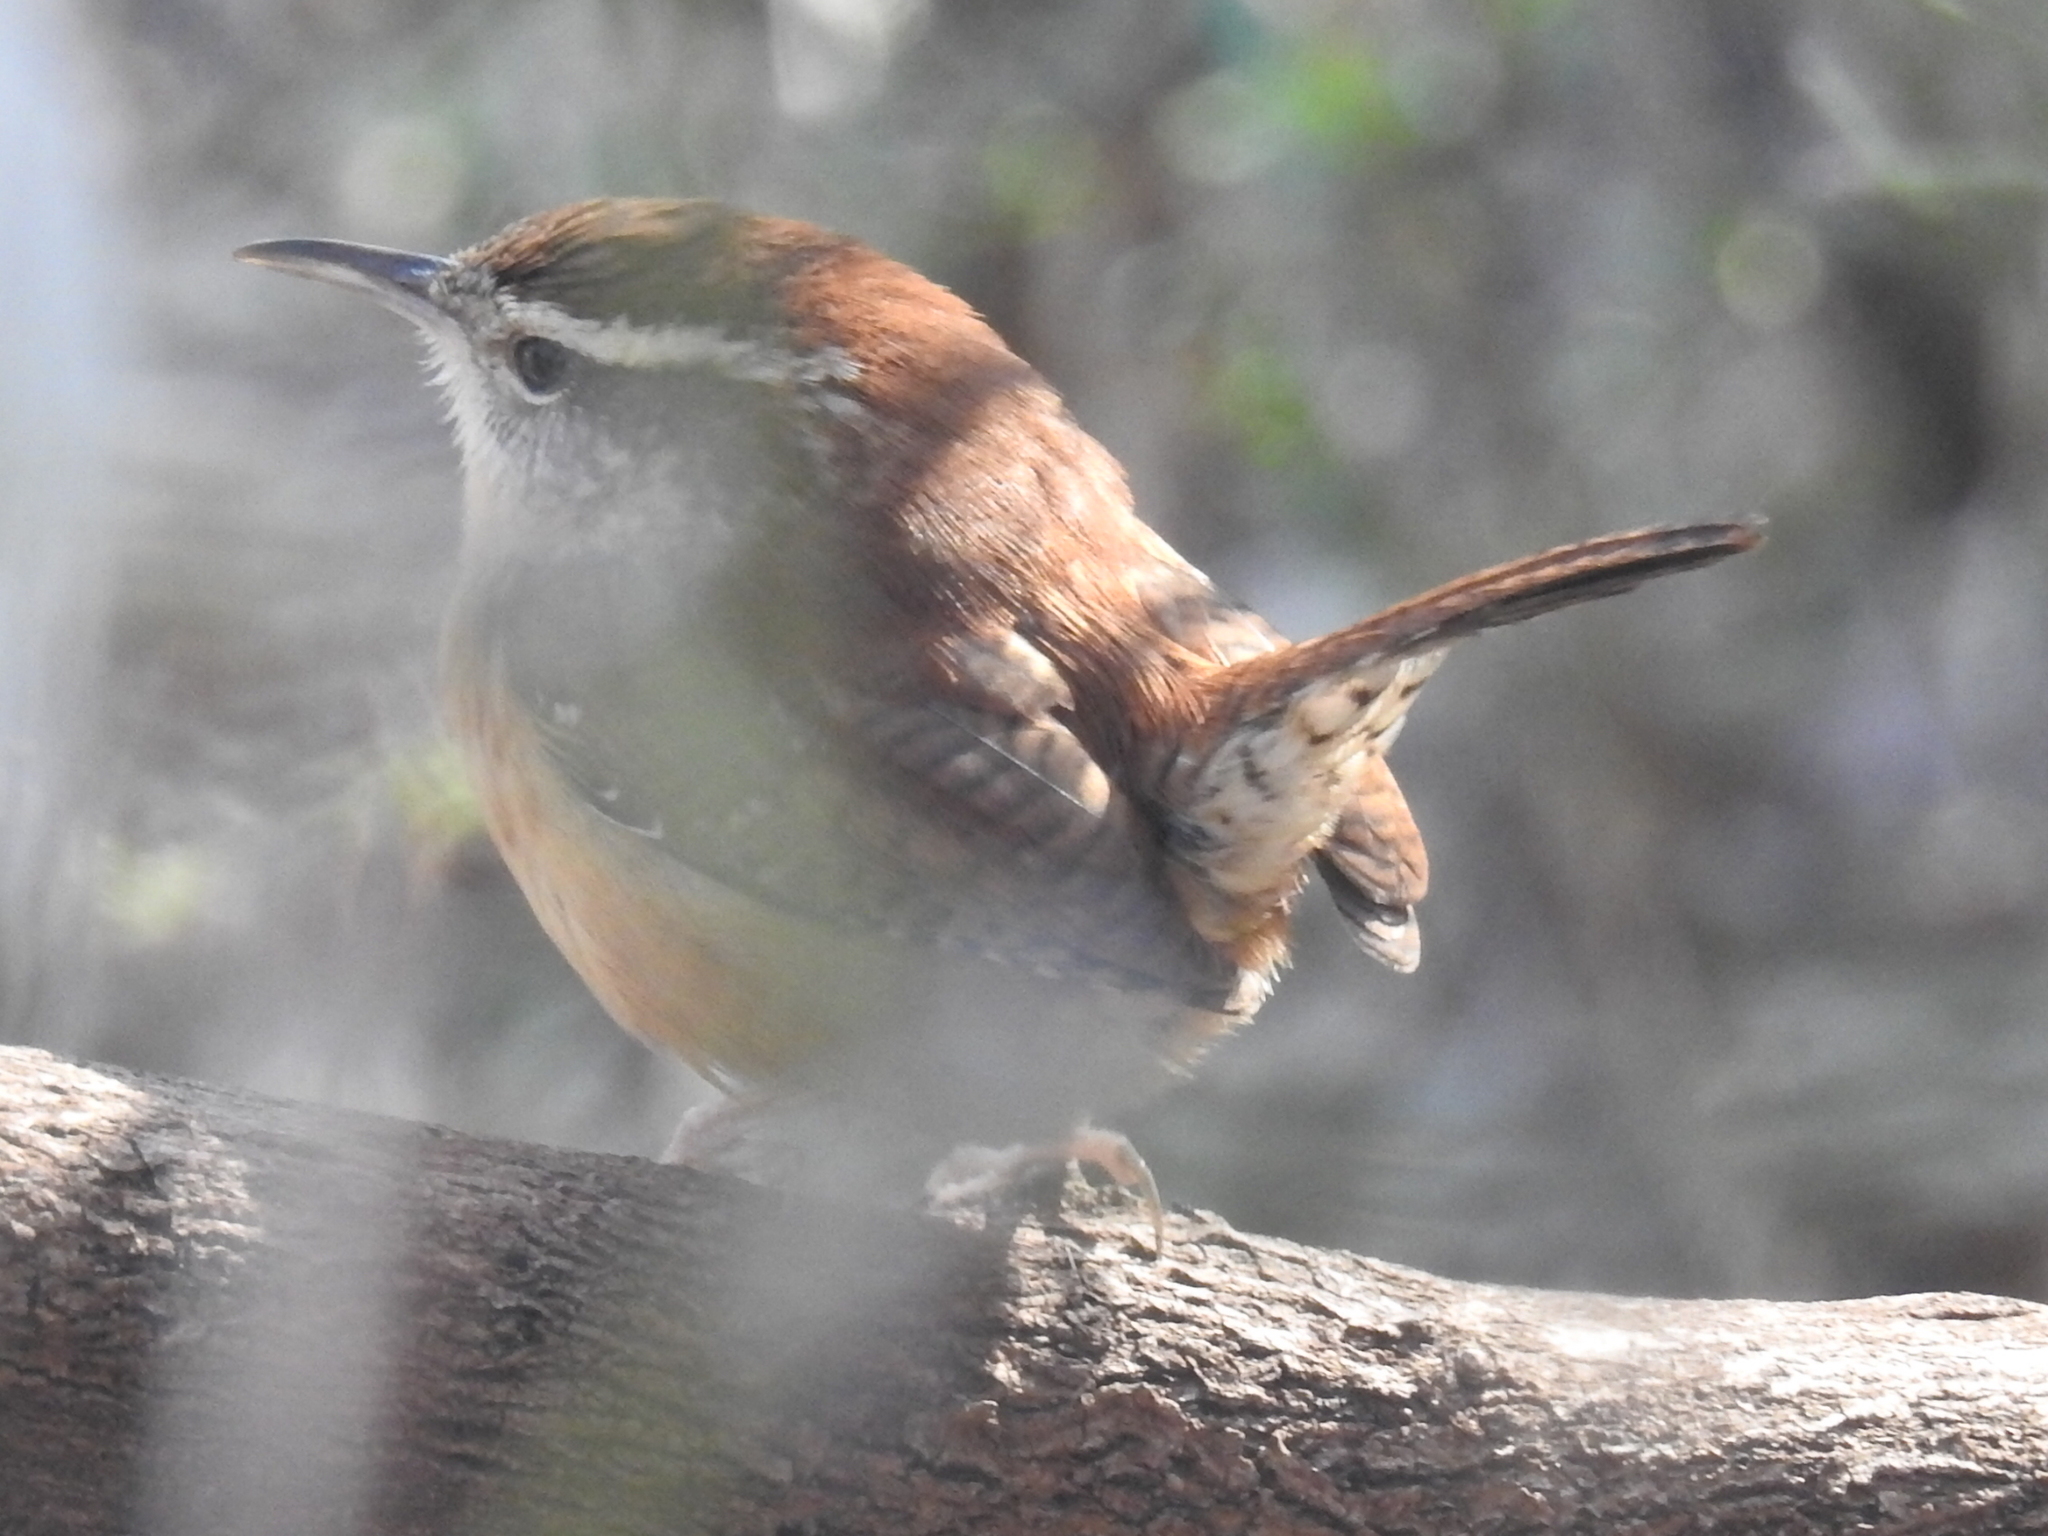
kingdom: Animalia
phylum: Chordata
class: Aves
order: Passeriformes
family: Troglodytidae
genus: Thryothorus
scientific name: Thryothorus ludovicianus
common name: Carolina wren
